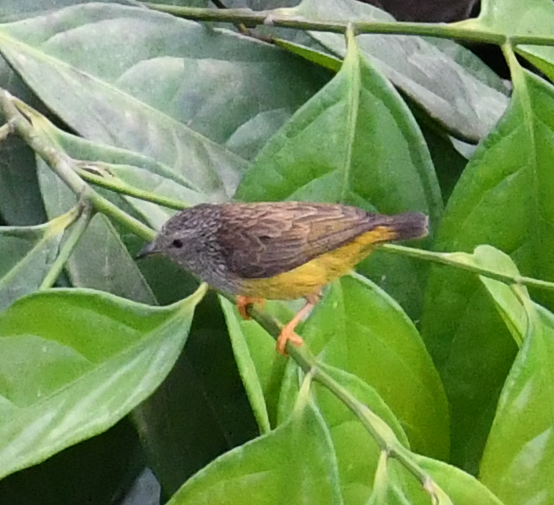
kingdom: Animalia
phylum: Chordata
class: Aves
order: Passeriformes
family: Cettiidae
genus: Pholidornis
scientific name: Pholidornis rushiae
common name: Tit-hylia
